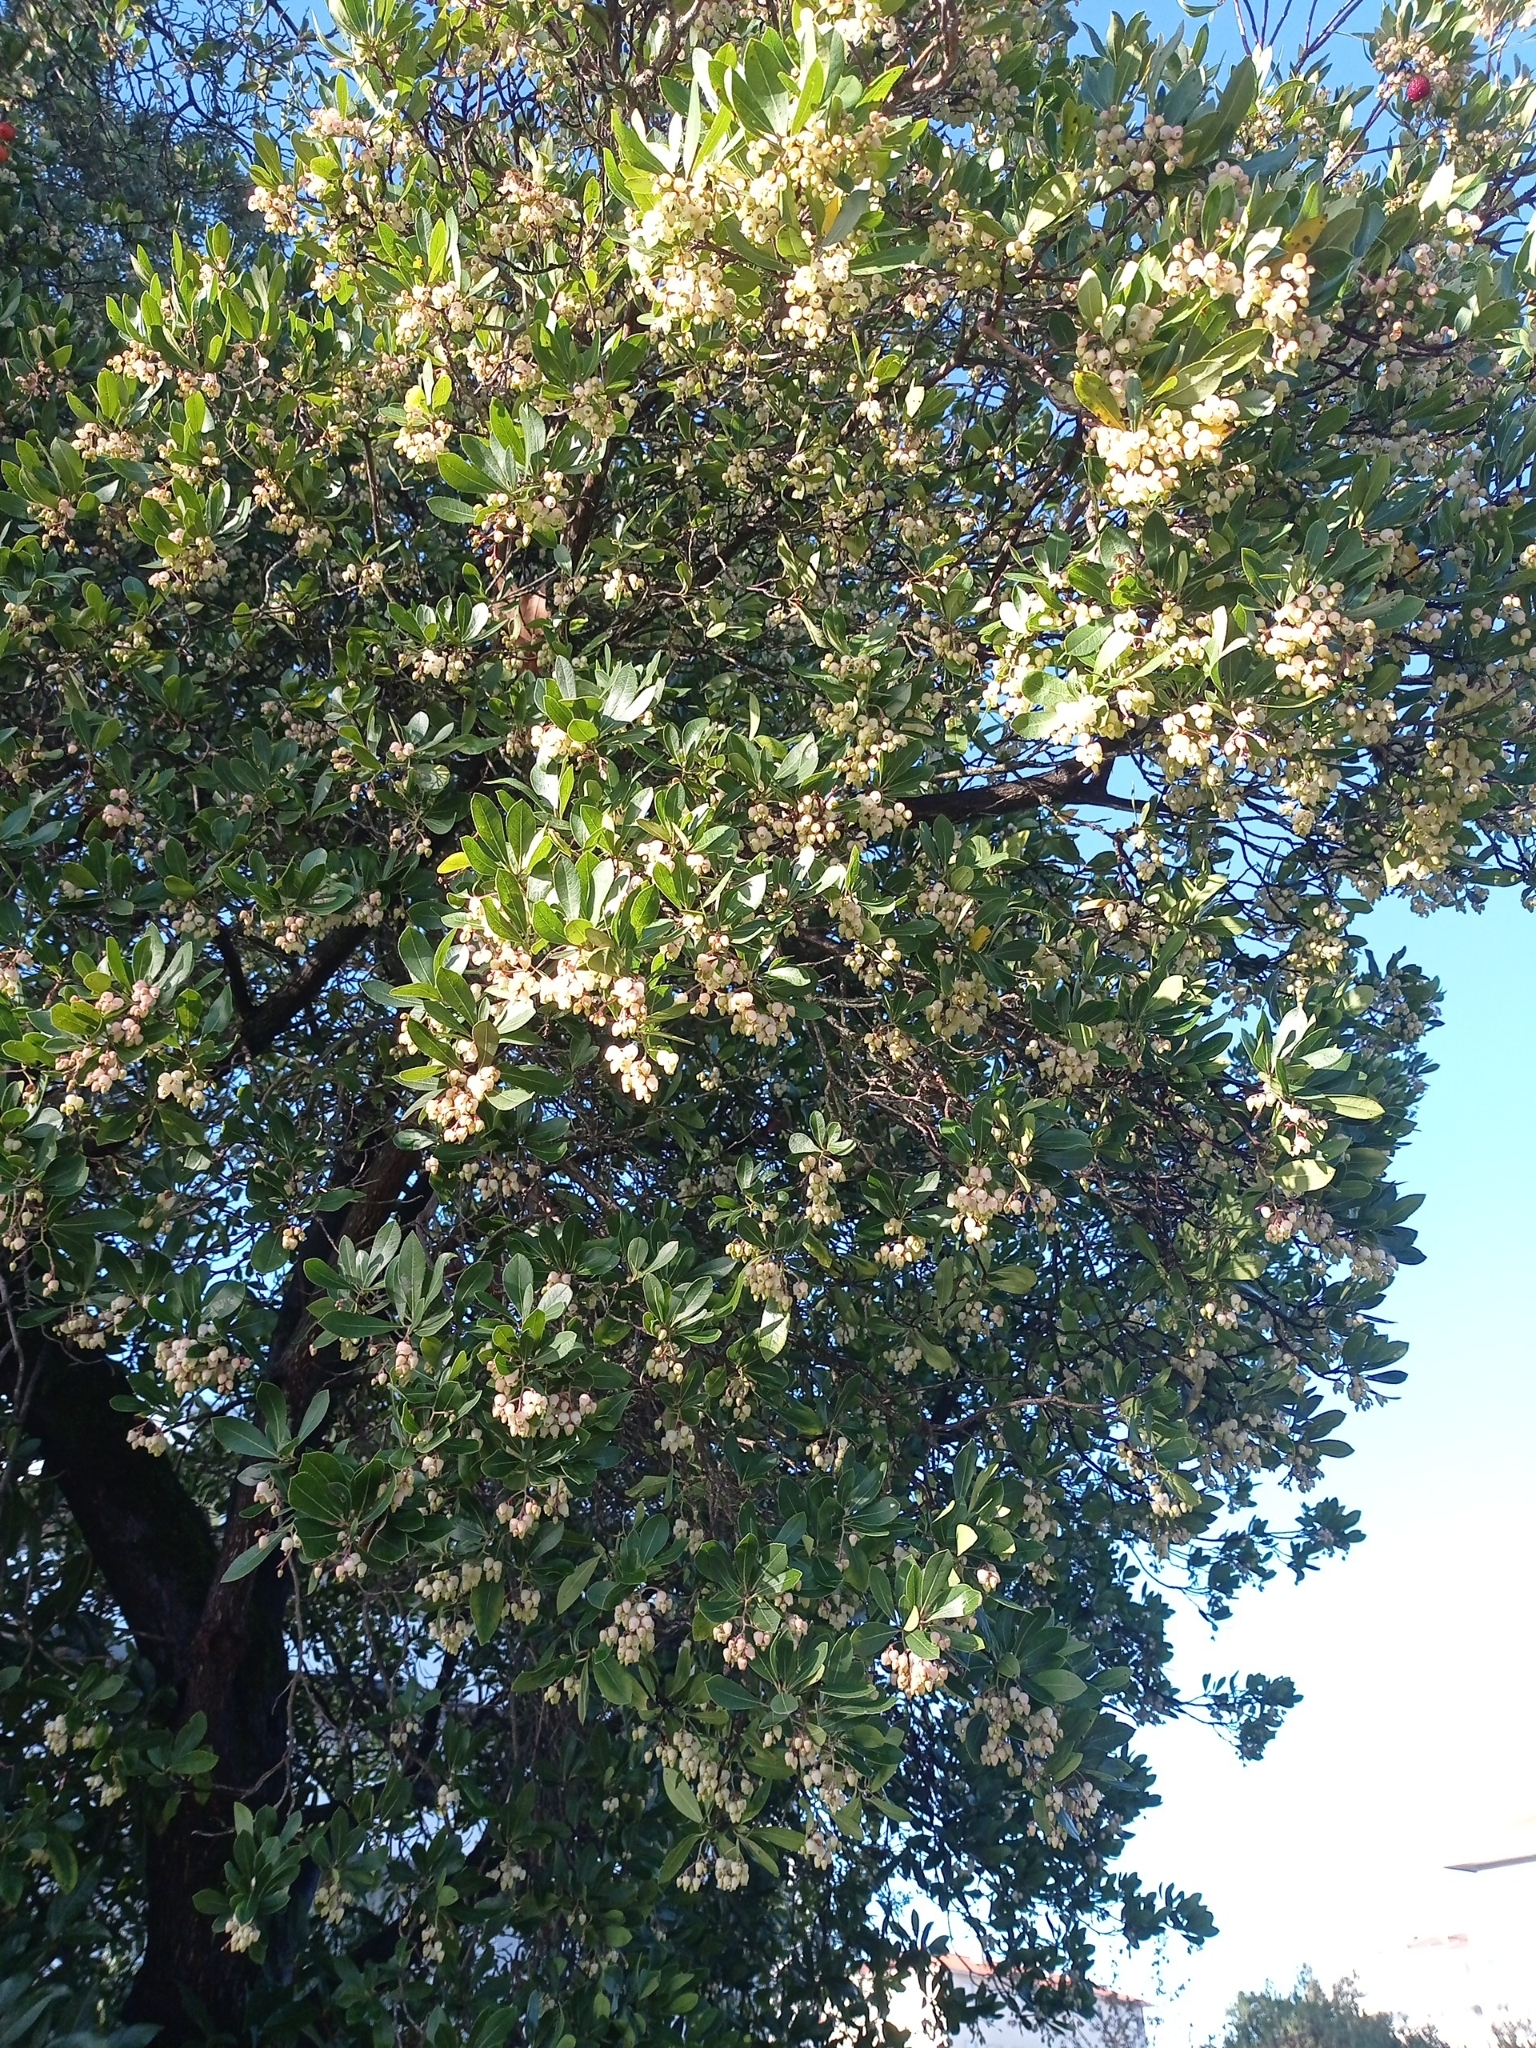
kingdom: Plantae
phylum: Tracheophyta
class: Magnoliopsida
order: Ericales
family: Ericaceae
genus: Arbutus
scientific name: Arbutus unedo
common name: Strawberry-tree
